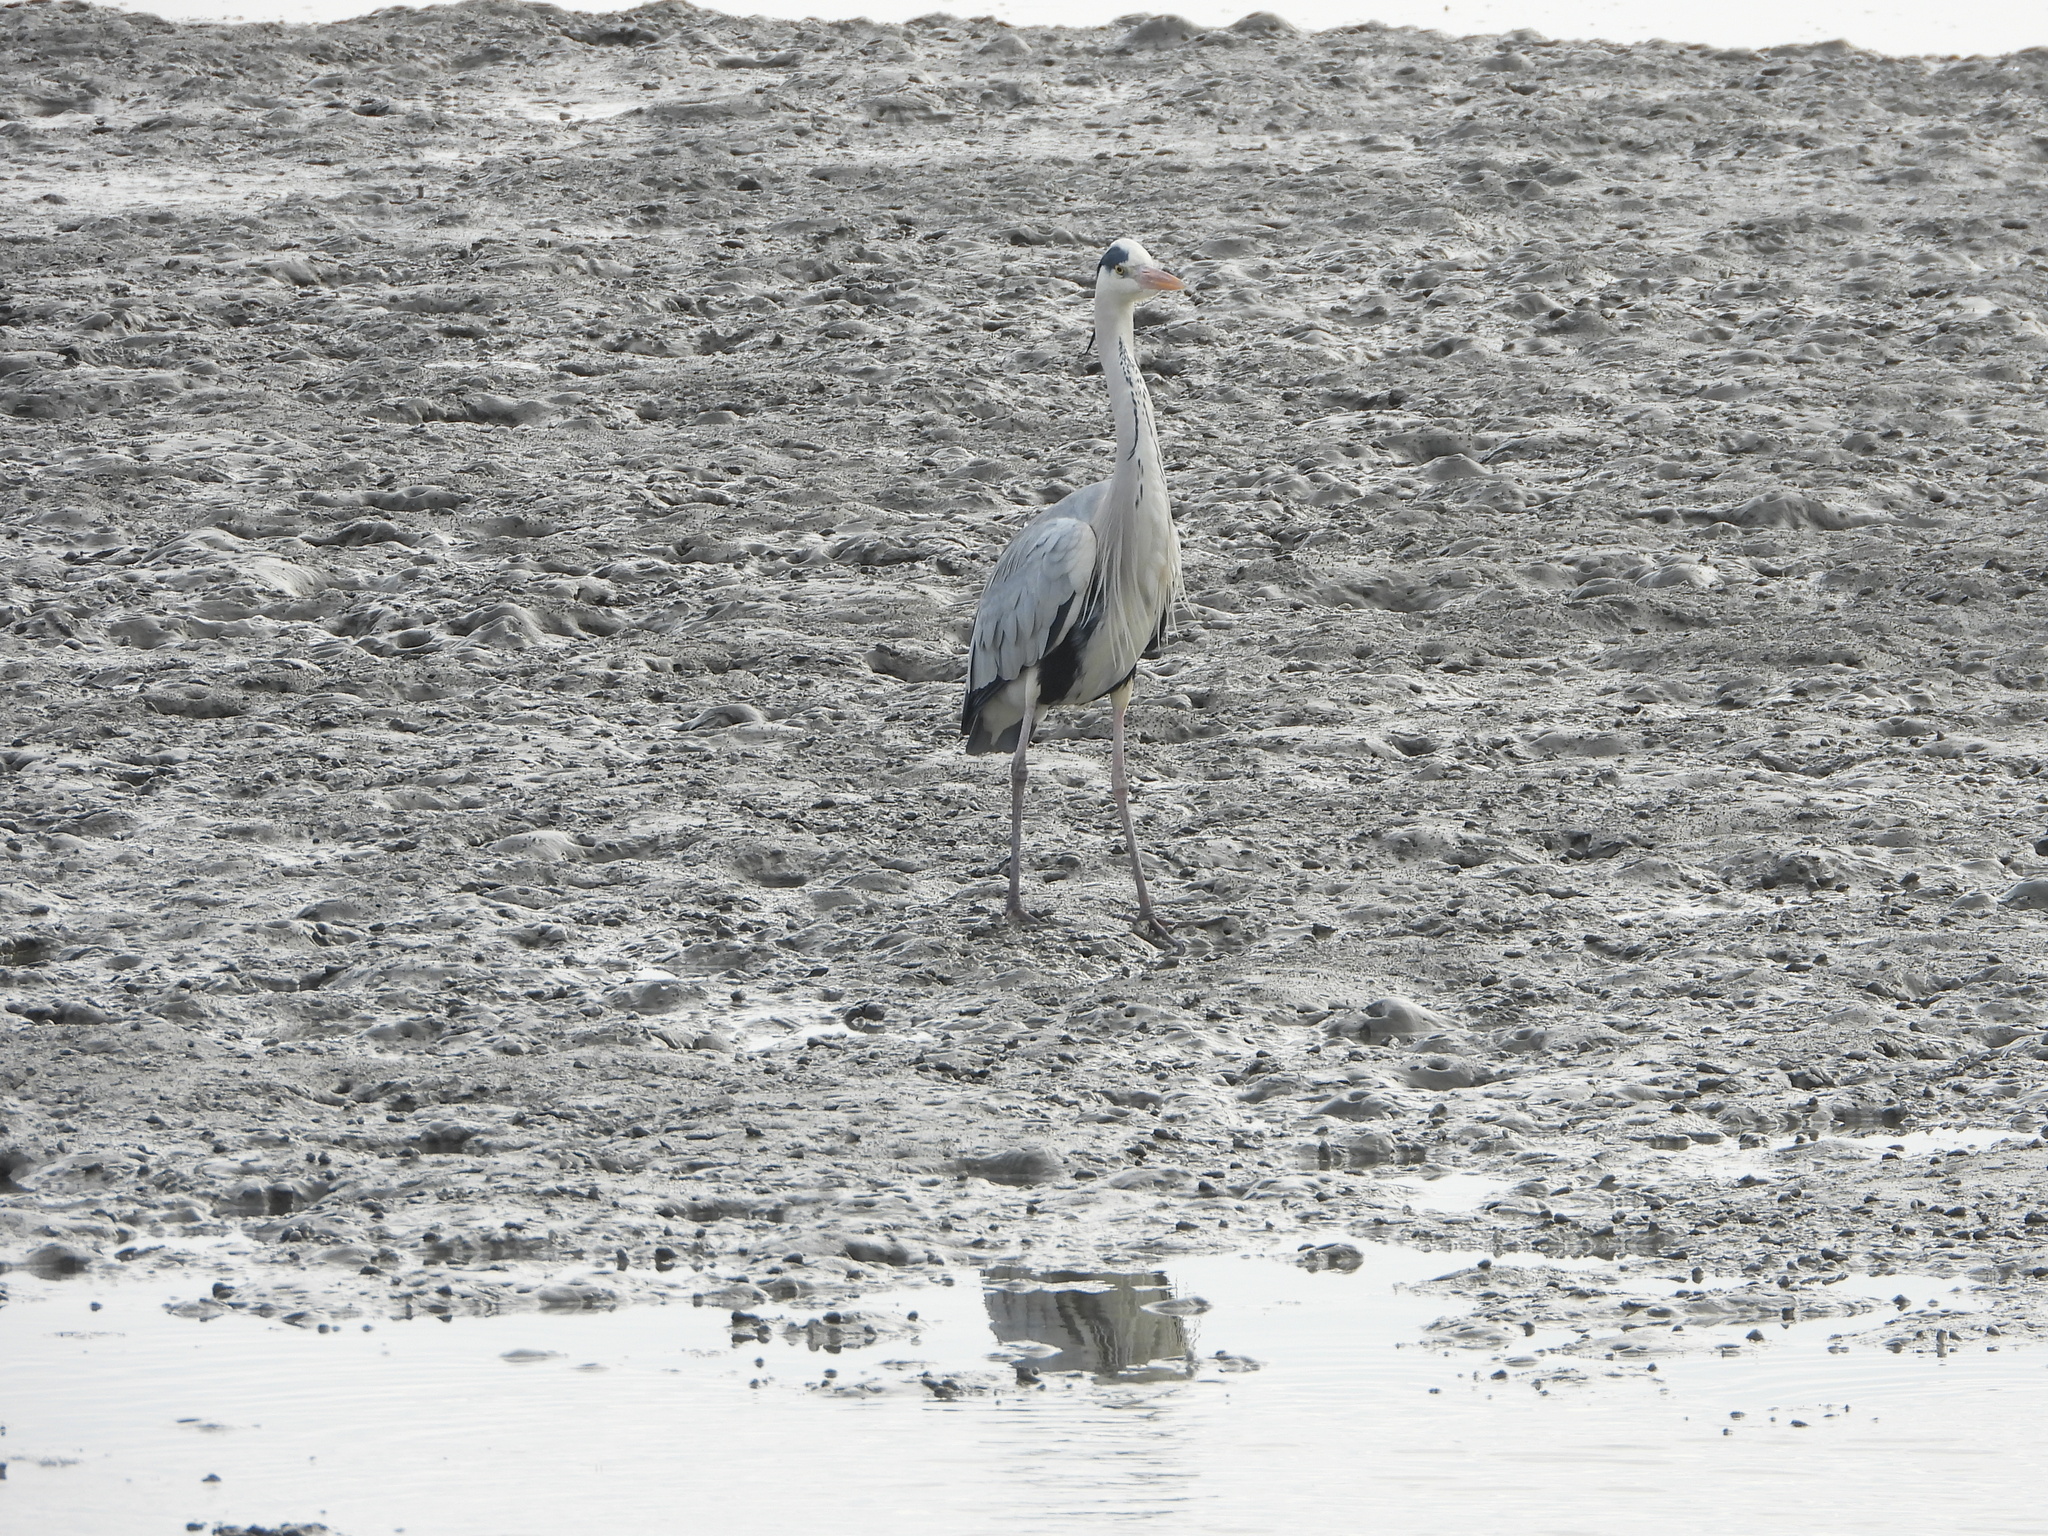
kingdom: Animalia
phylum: Chordata
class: Aves
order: Pelecaniformes
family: Ardeidae
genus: Ardea
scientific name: Ardea cinerea
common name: Grey heron
